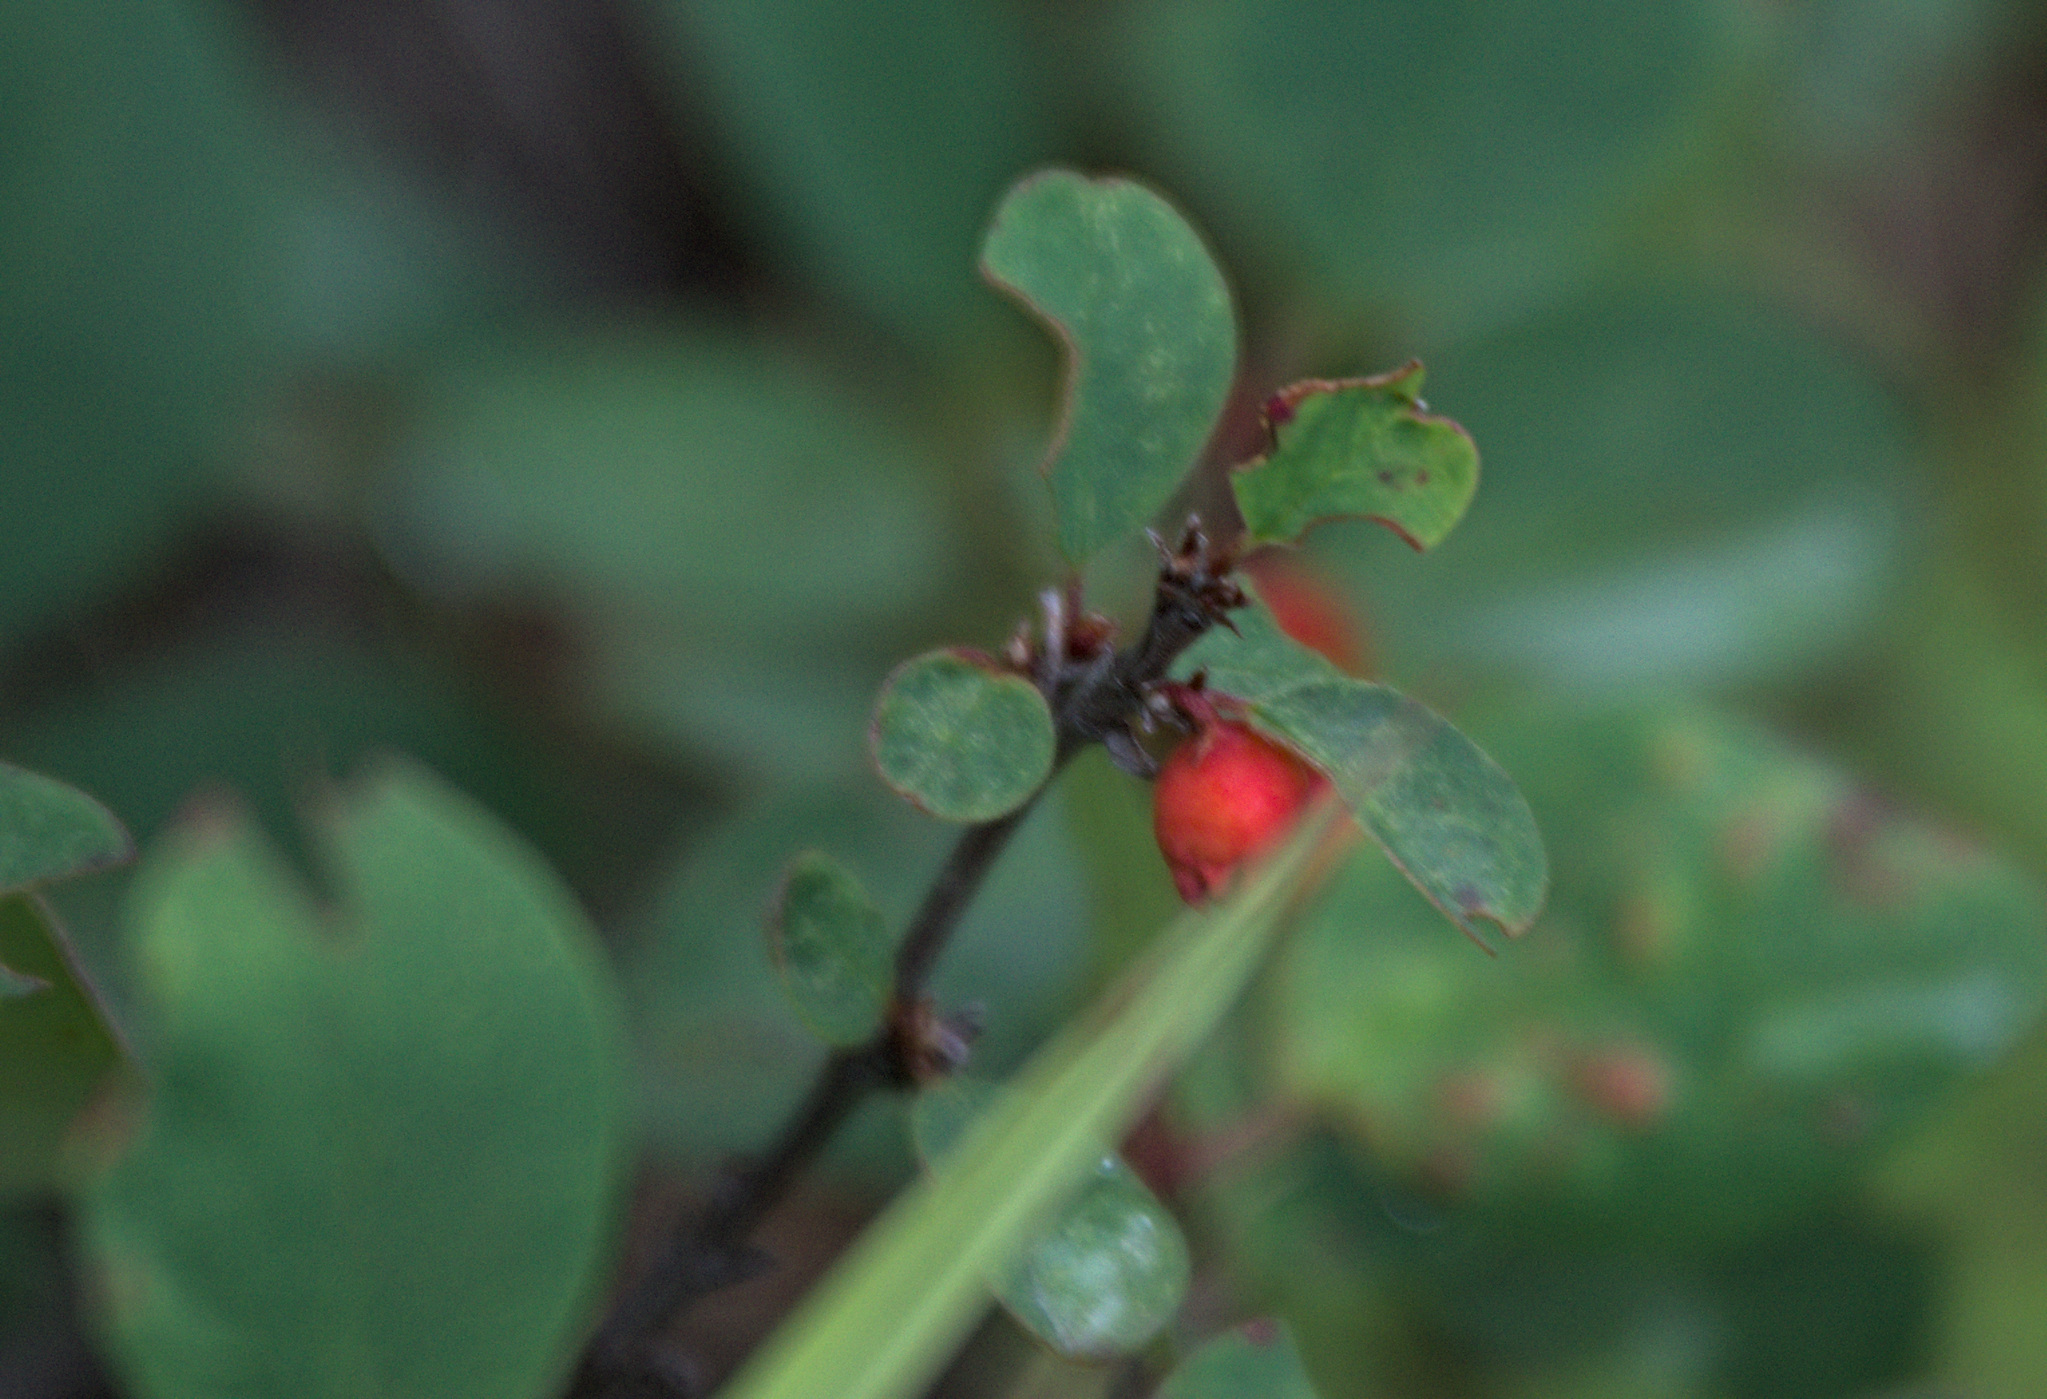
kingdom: Plantae
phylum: Tracheophyta
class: Magnoliopsida
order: Rosales
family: Rosaceae
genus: Cotoneaster
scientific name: Cotoneaster uniflorus
